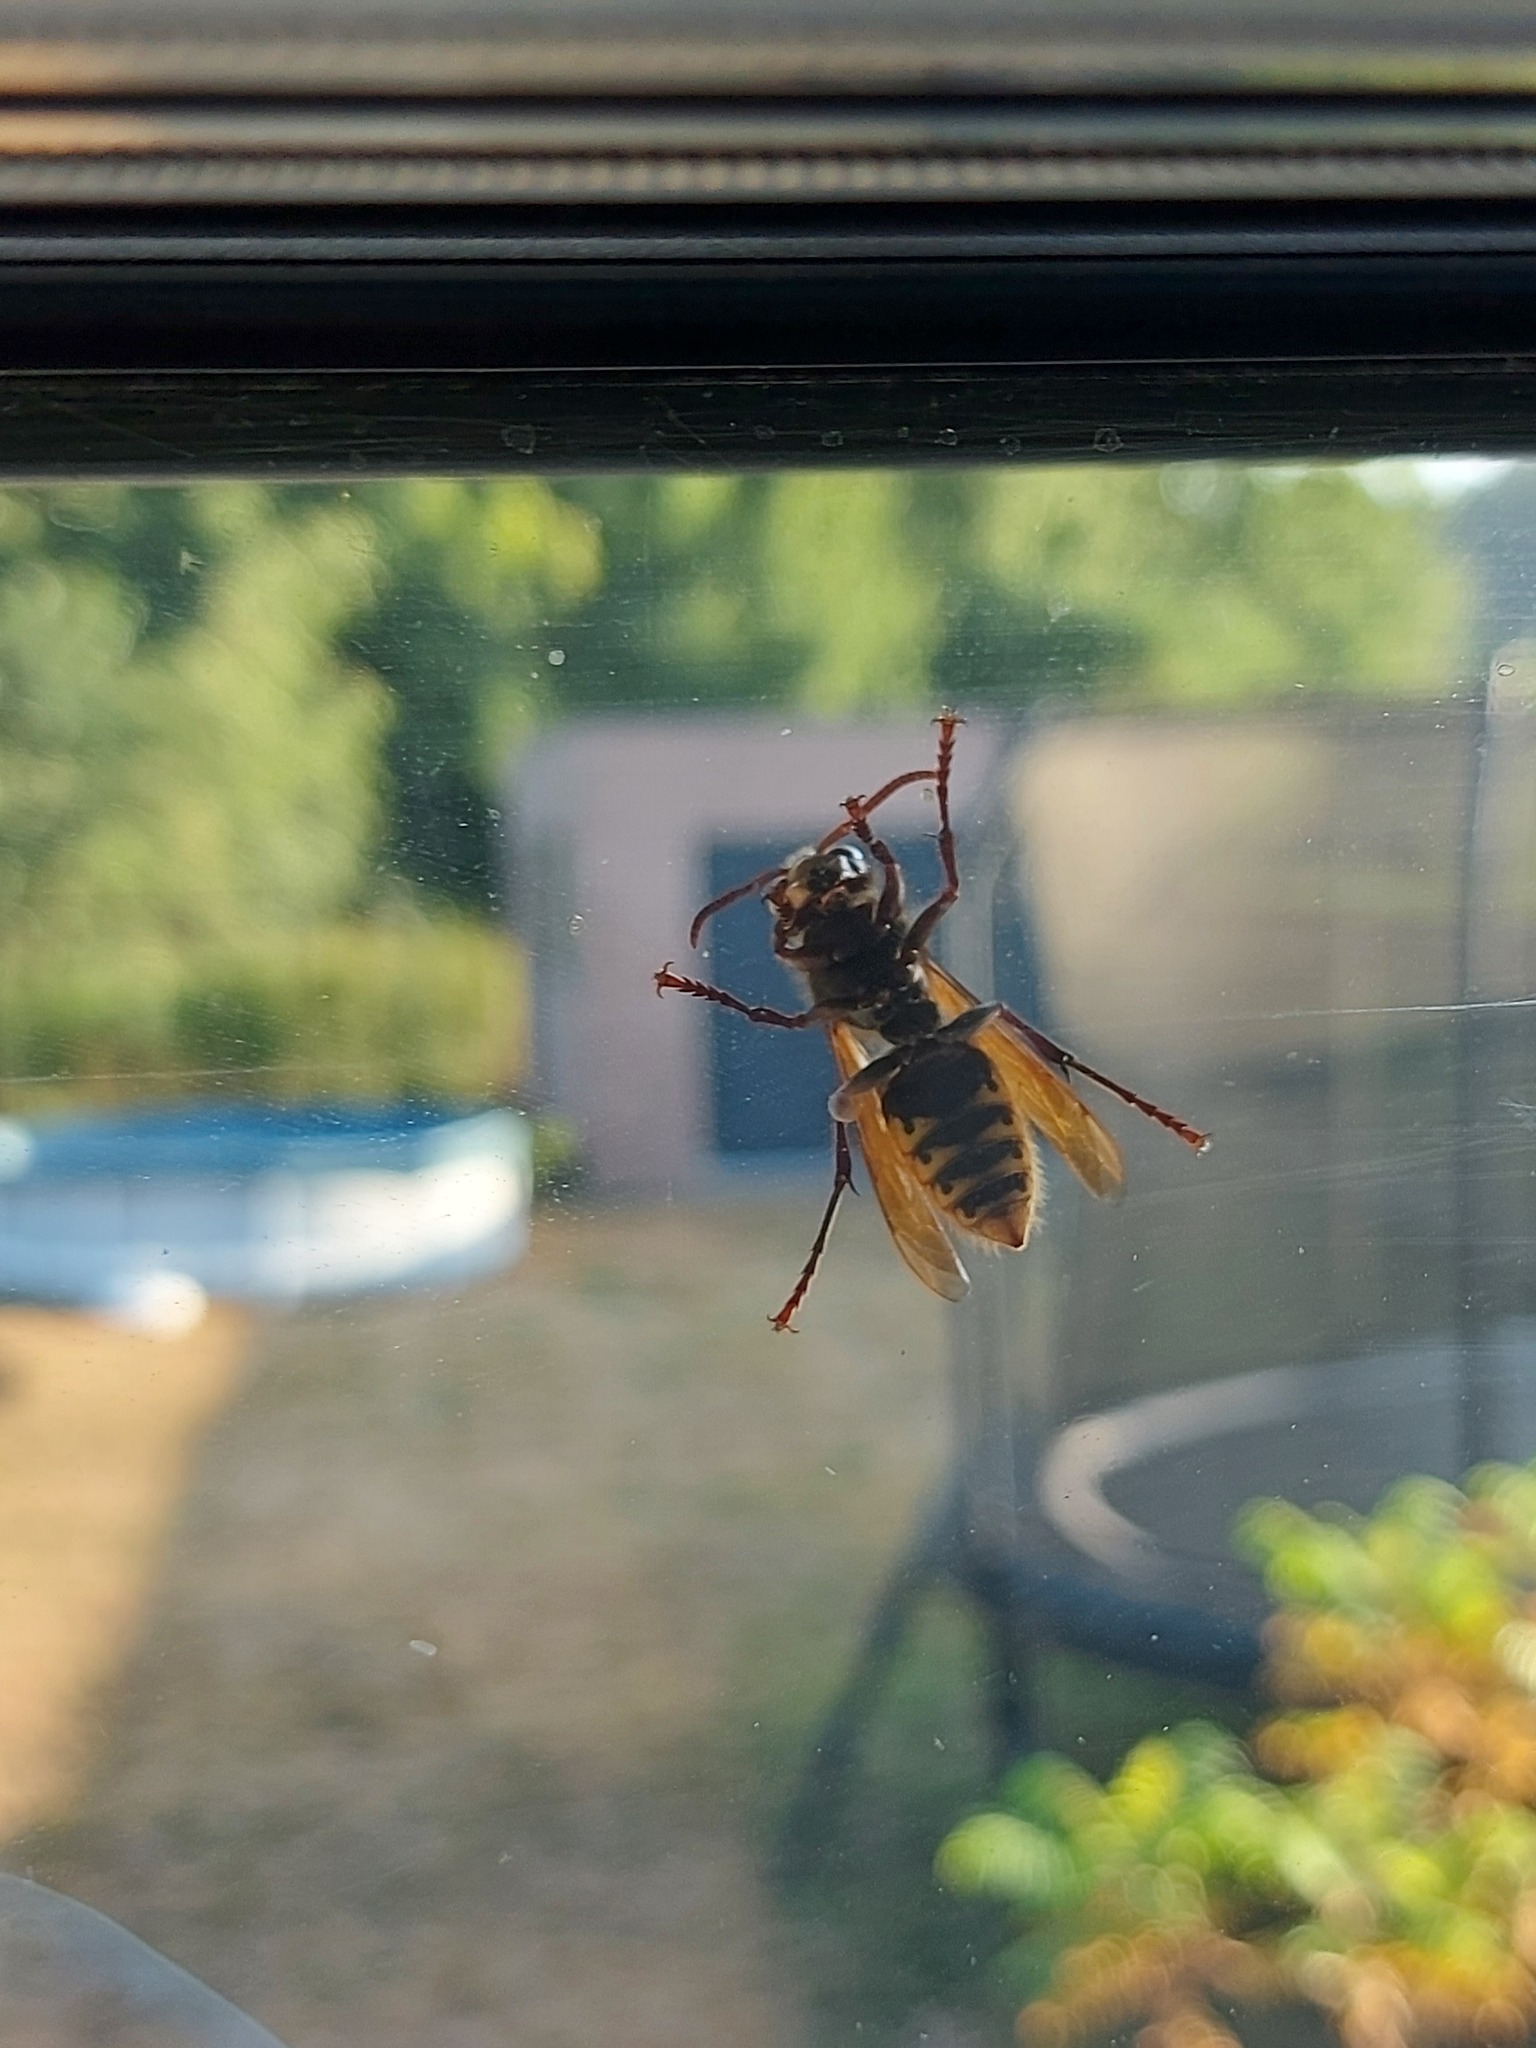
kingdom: Animalia
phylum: Arthropoda
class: Insecta
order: Hymenoptera
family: Vespidae
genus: Vespa
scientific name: Vespa crabro
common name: Hornet
